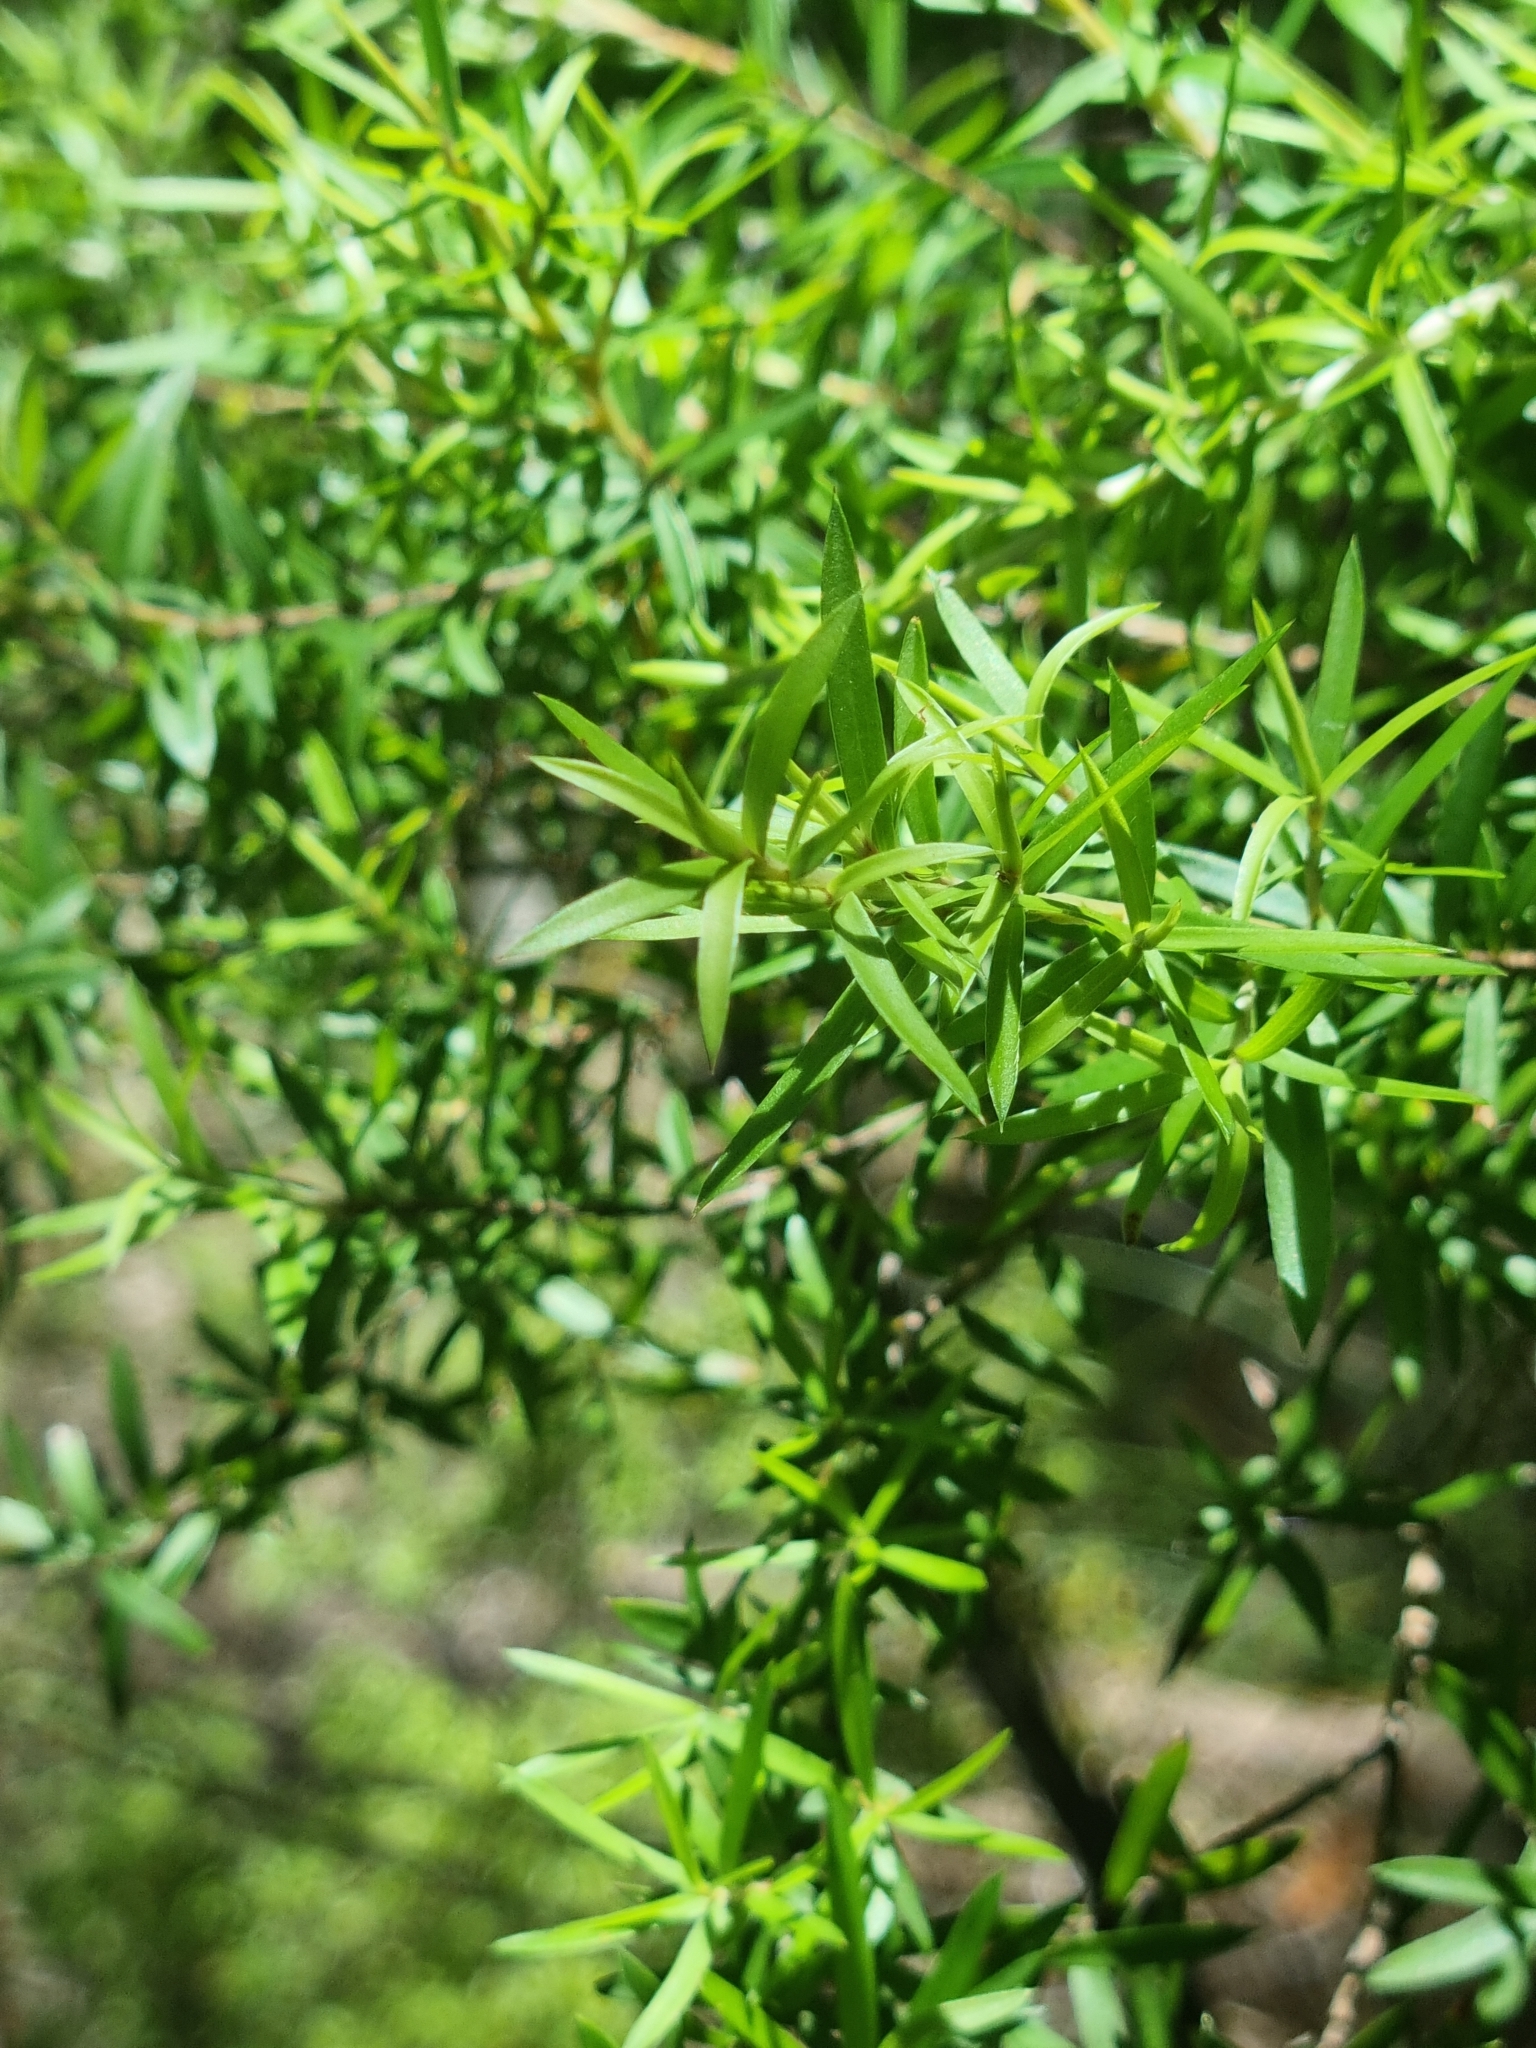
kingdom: Plantae
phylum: Tracheophyta
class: Magnoliopsida
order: Myrtales
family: Myrtaceae
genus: Kunzea
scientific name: Kunzea ericoides
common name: Burgan
